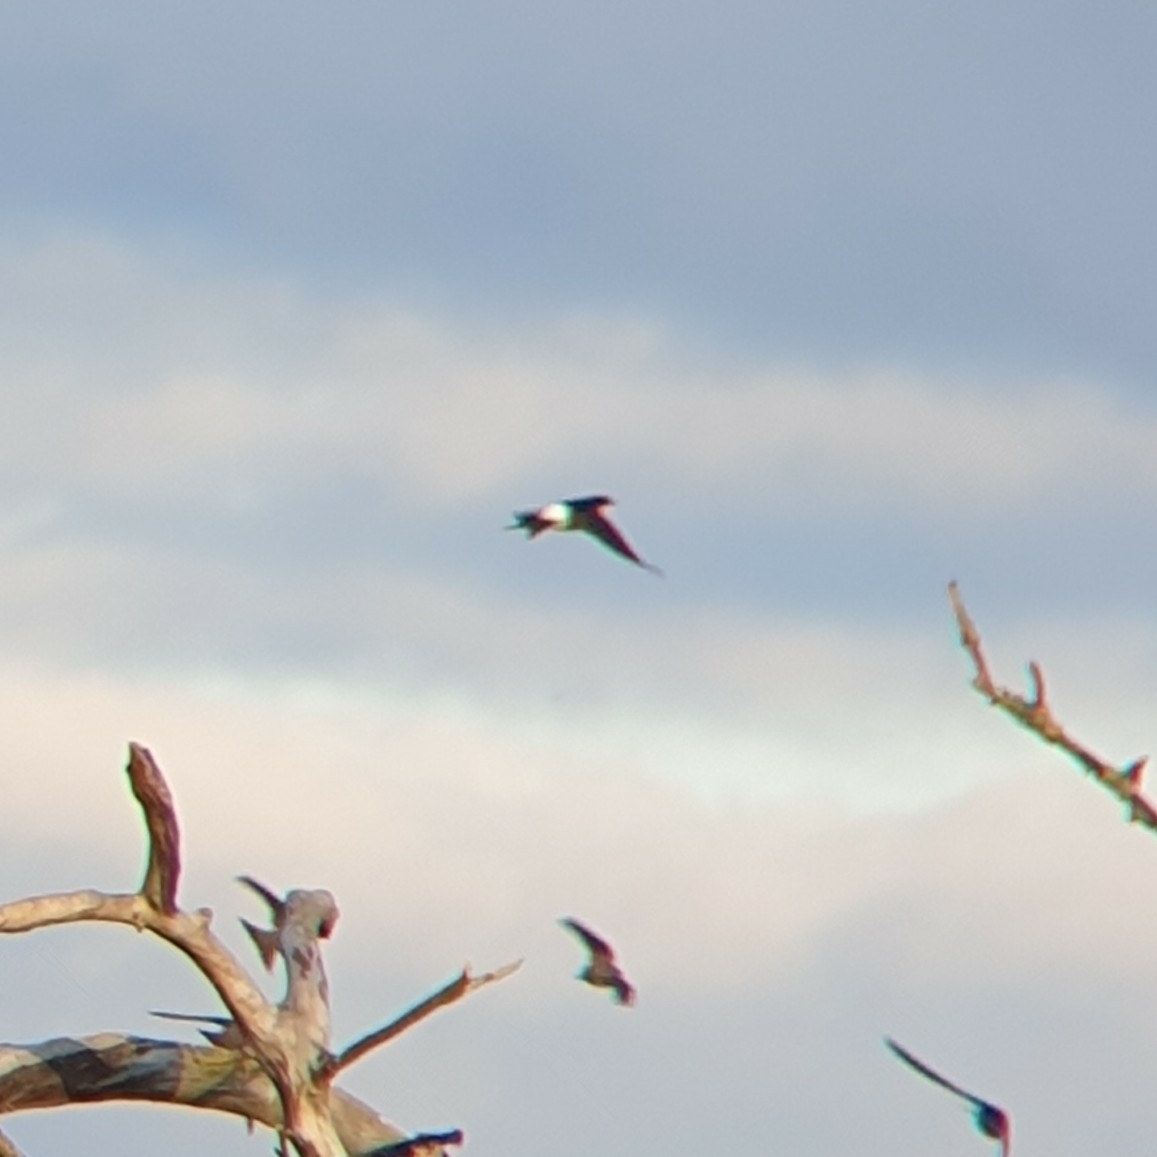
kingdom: Animalia
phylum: Chordata
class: Aves
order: Passeriformes
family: Hirundinidae
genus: Delichon
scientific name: Delichon urbicum
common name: Common house martin
